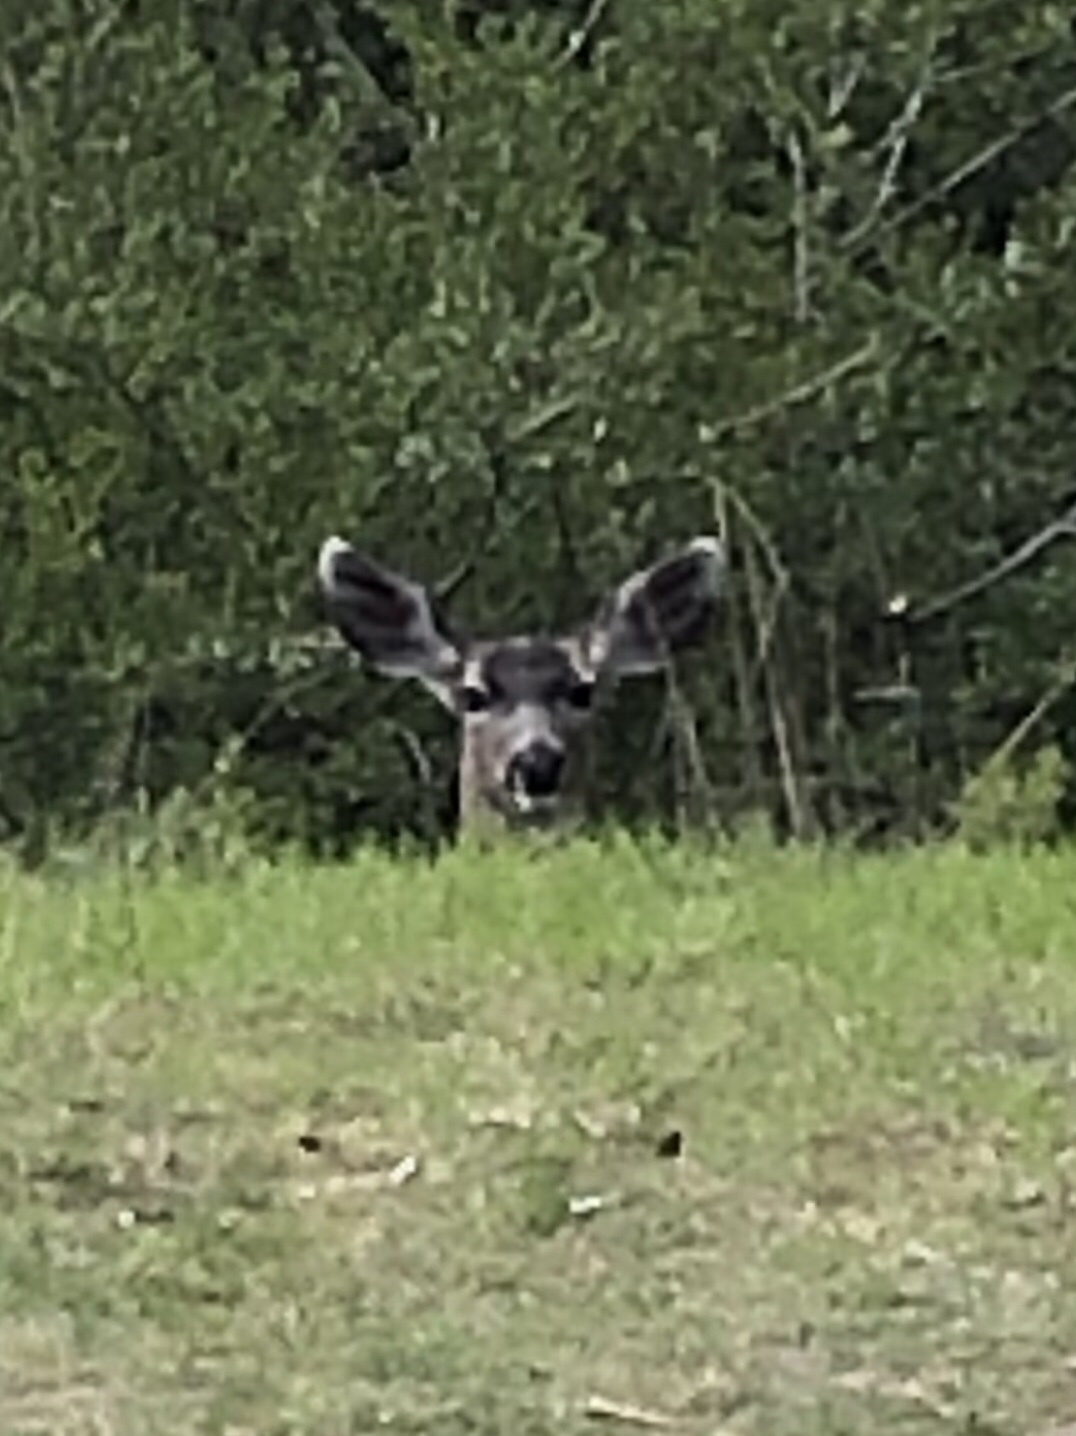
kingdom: Animalia
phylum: Chordata
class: Mammalia
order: Artiodactyla
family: Cervidae
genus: Odocoileus
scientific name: Odocoileus hemionus
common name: Mule deer
